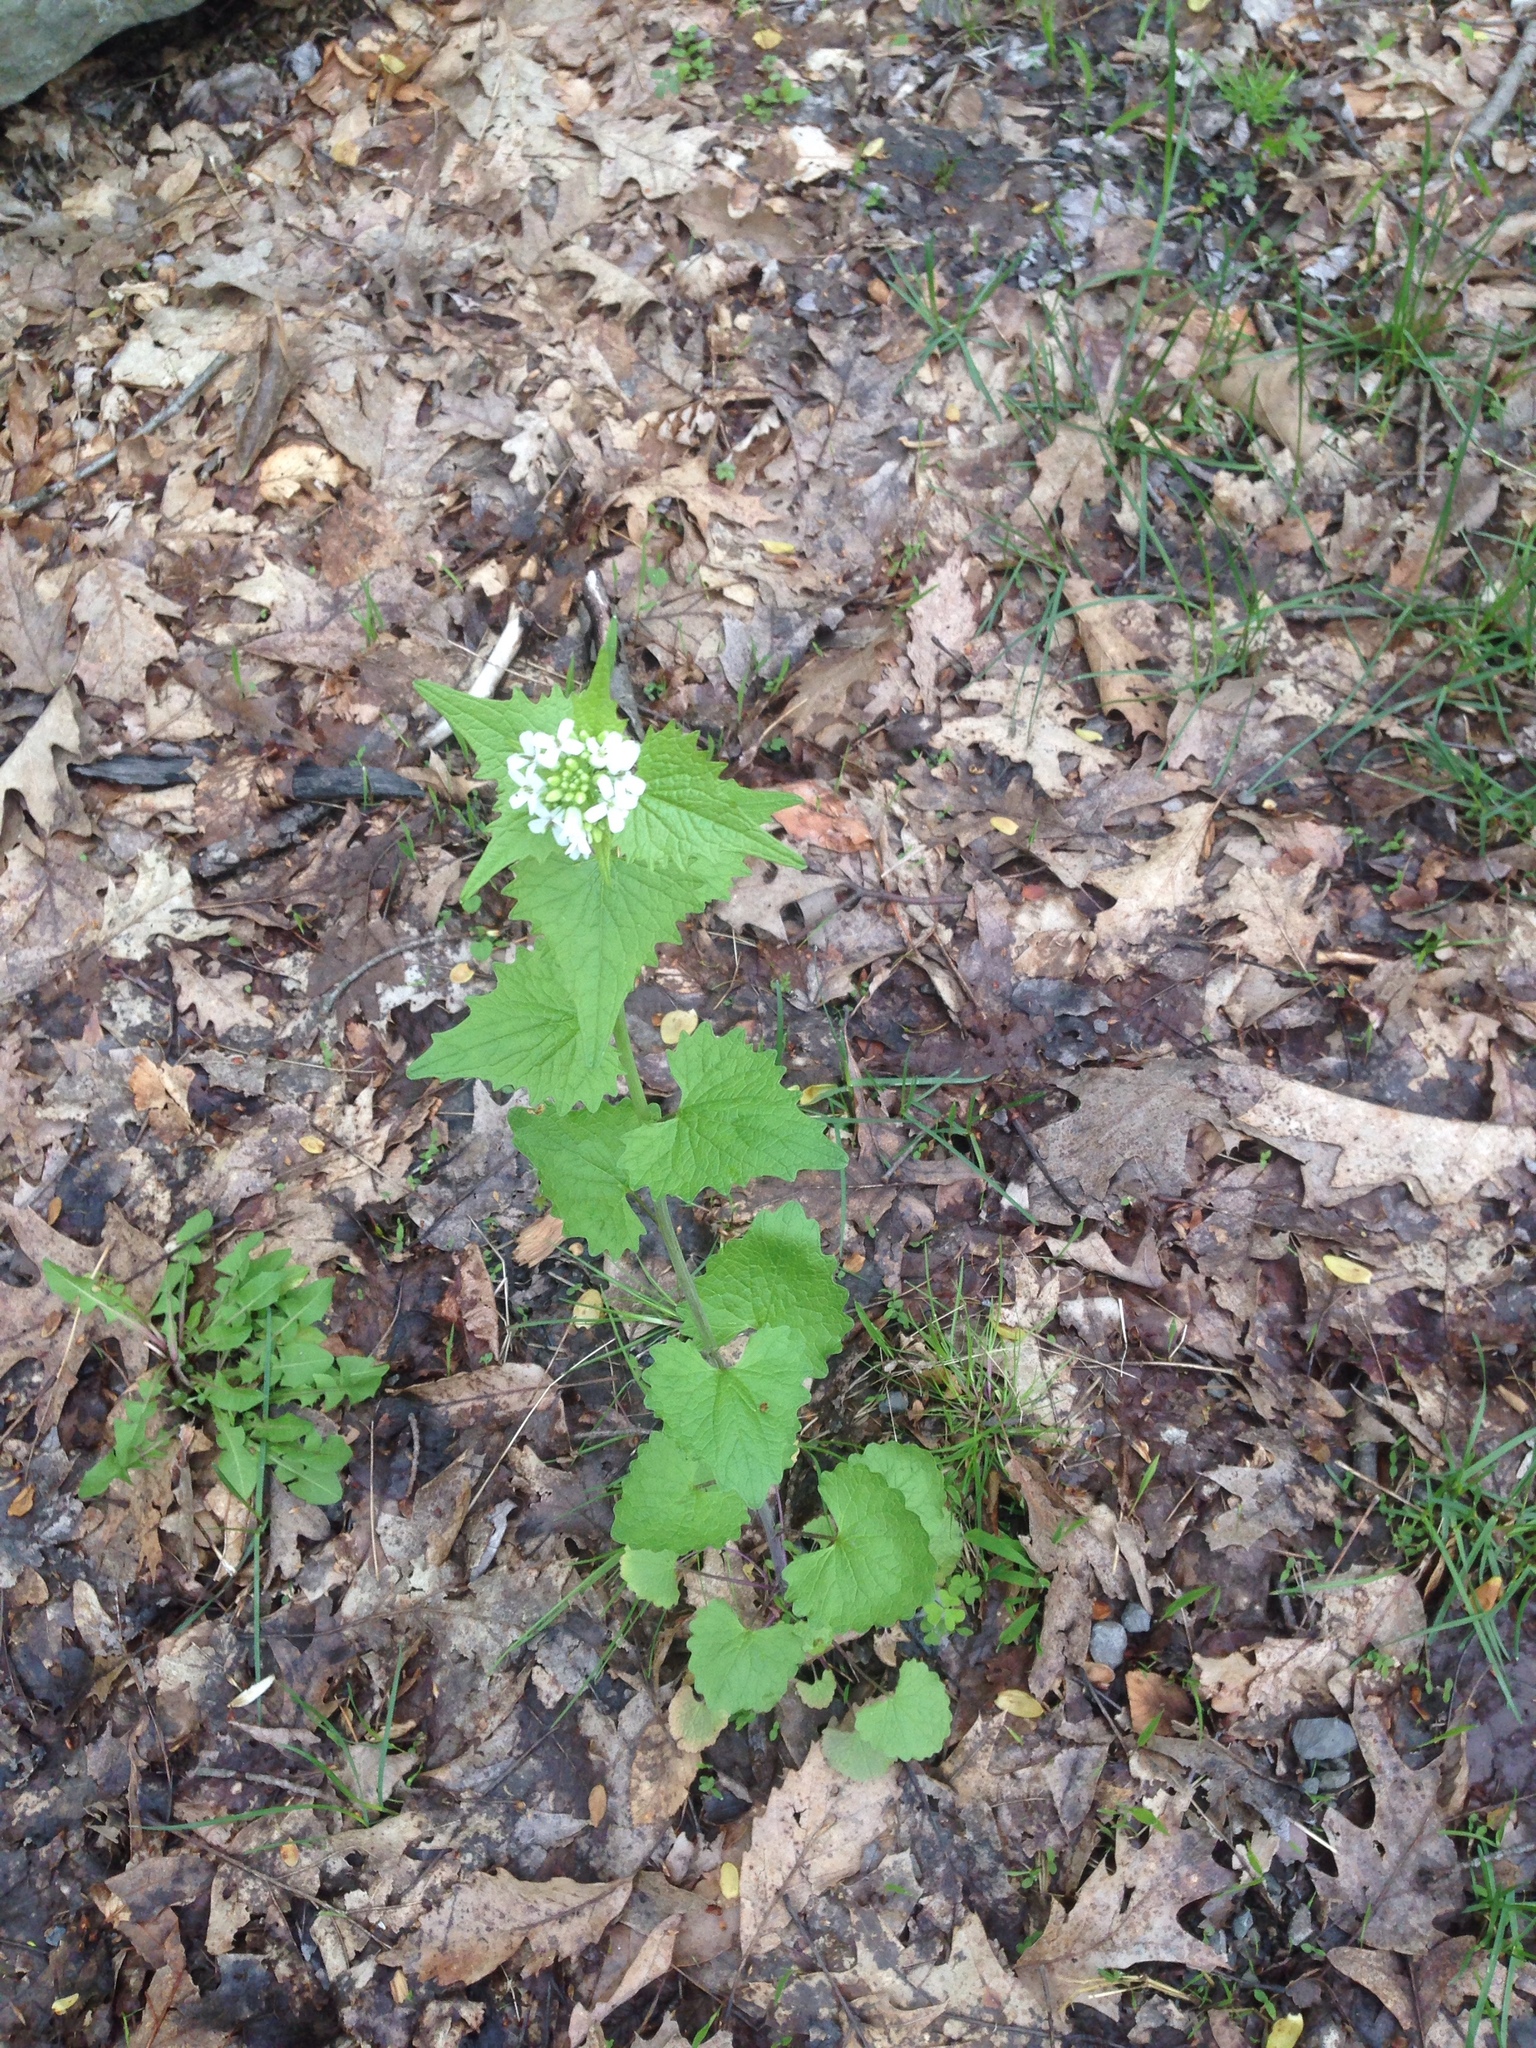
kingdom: Plantae
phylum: Tracheophyta
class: Magnoliopsida
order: Brassicales
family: Brassicaceae
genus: Alliaria
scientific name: Alliaria petiolata
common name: Garlic mustard
